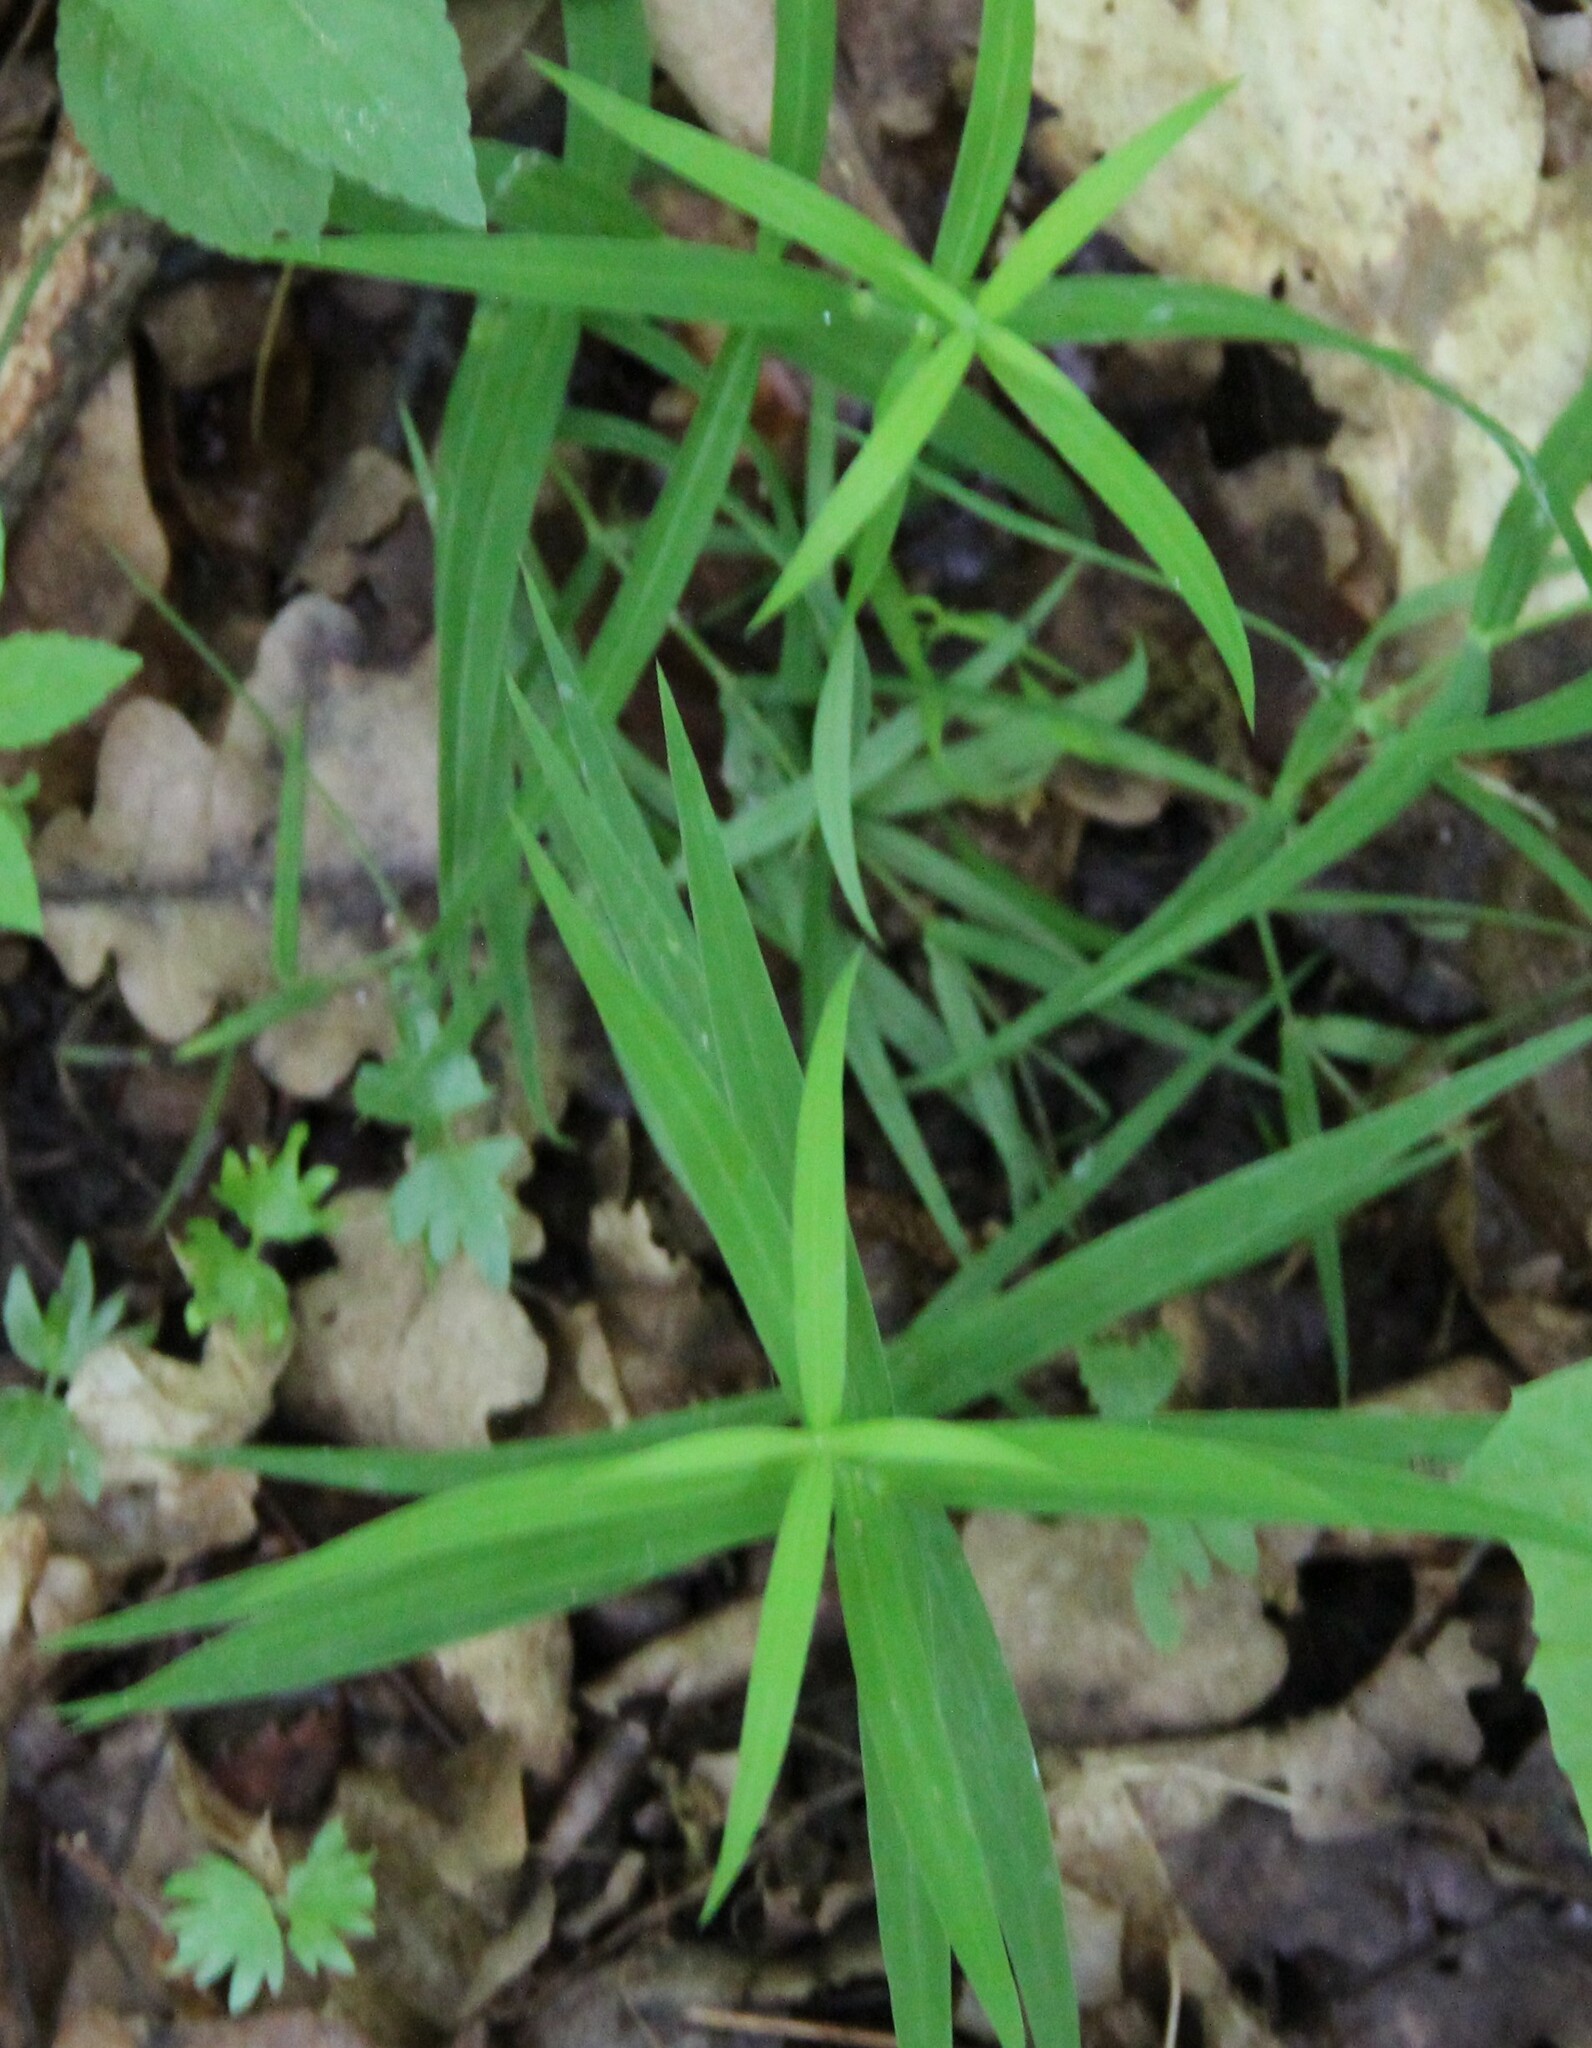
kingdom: Plantae
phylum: Tracheophyta
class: Magnoliopsida
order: Caryophyllales
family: Caryophyllaceae
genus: Rabelera
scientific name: Rabelera holostea
